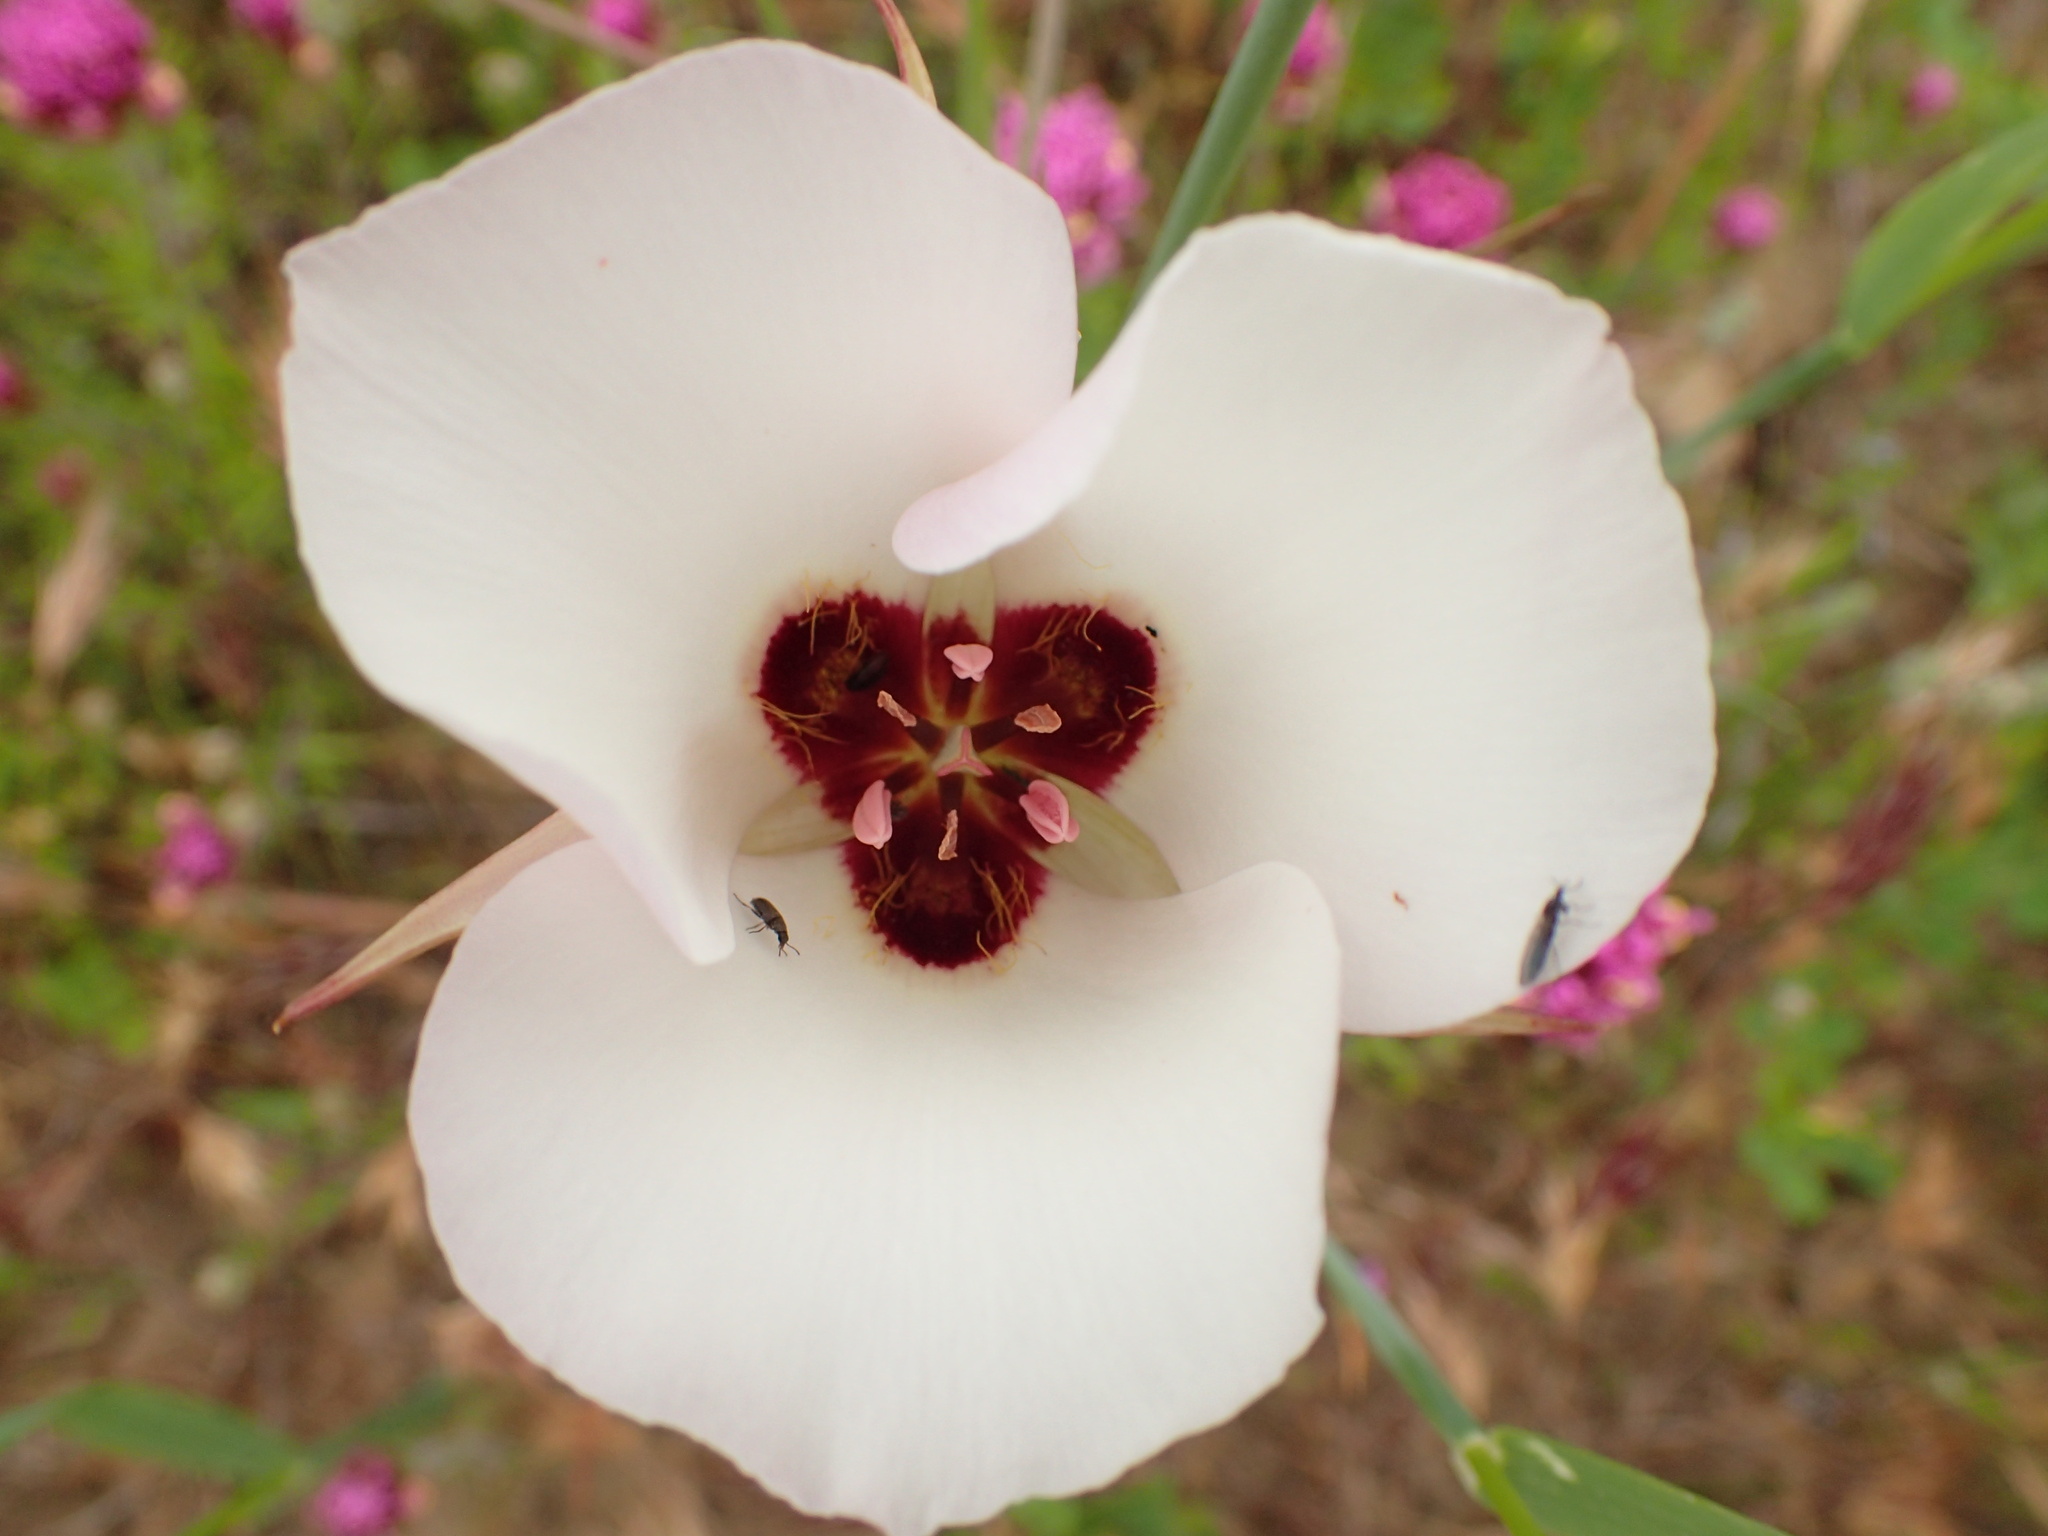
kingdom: Plantae
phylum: Tracheophyta
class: Liliopsida
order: Liliales
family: Liliaceae
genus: Calochortus
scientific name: Calochortus catalinae
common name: Catalina mariposa-lily
